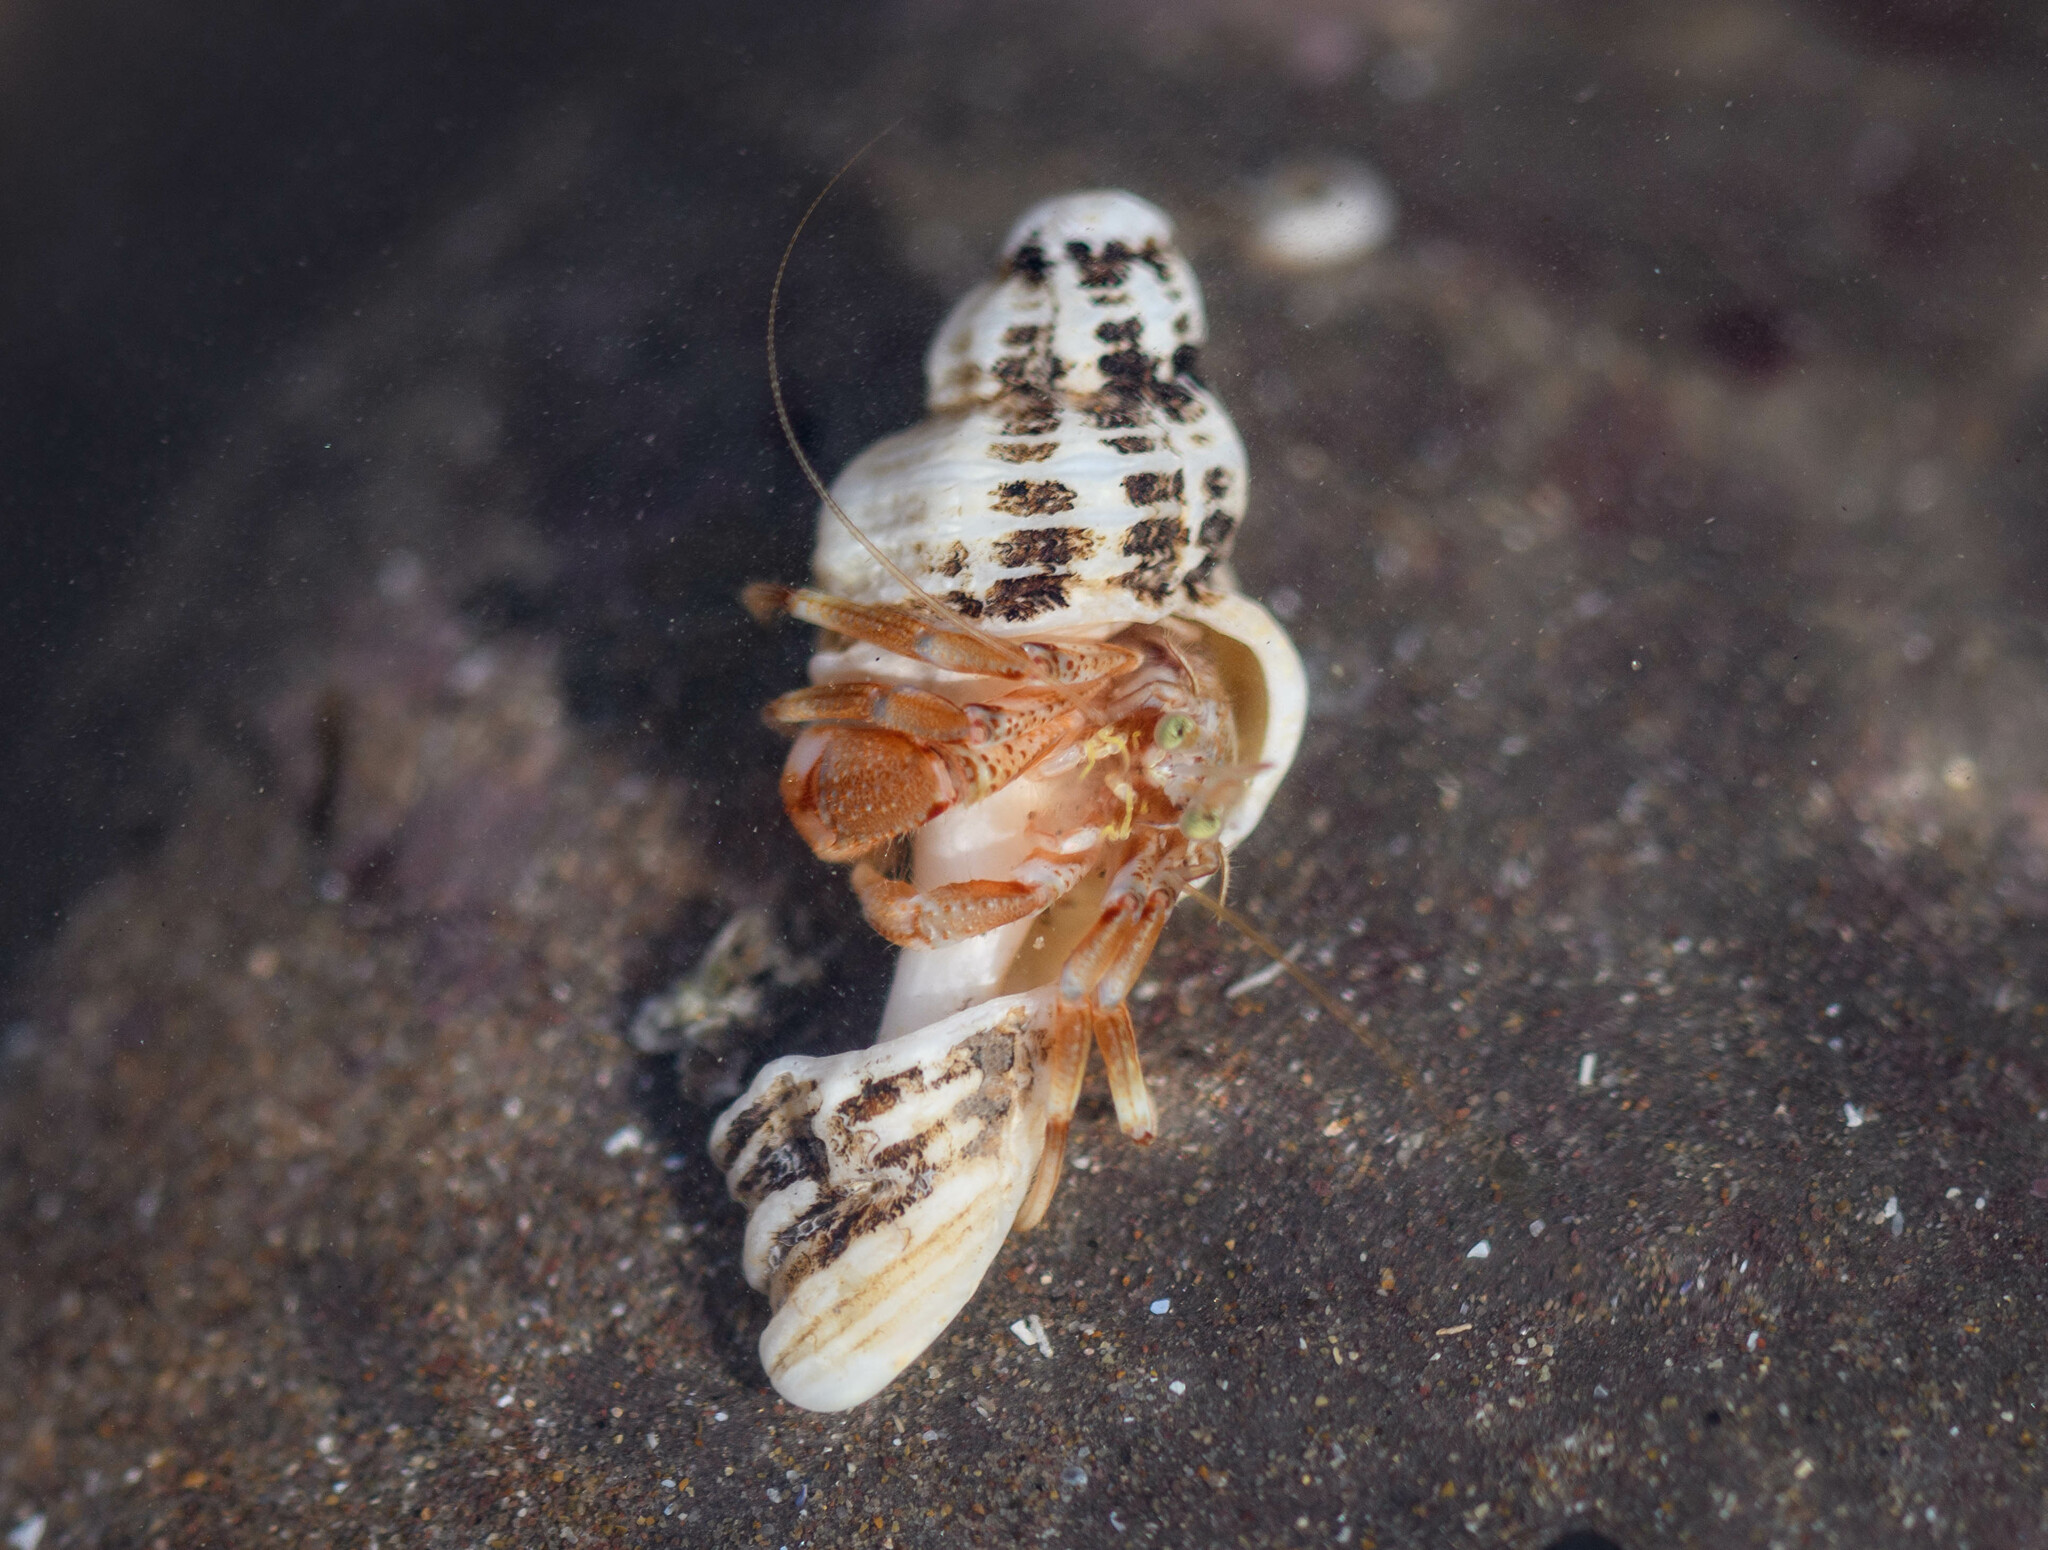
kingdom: Animalia
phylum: Arthropoda
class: Malacostraca
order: Decapoda
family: Paguridae
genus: Pagurus
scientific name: Pagurus bernhardus
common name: Hermit crab
